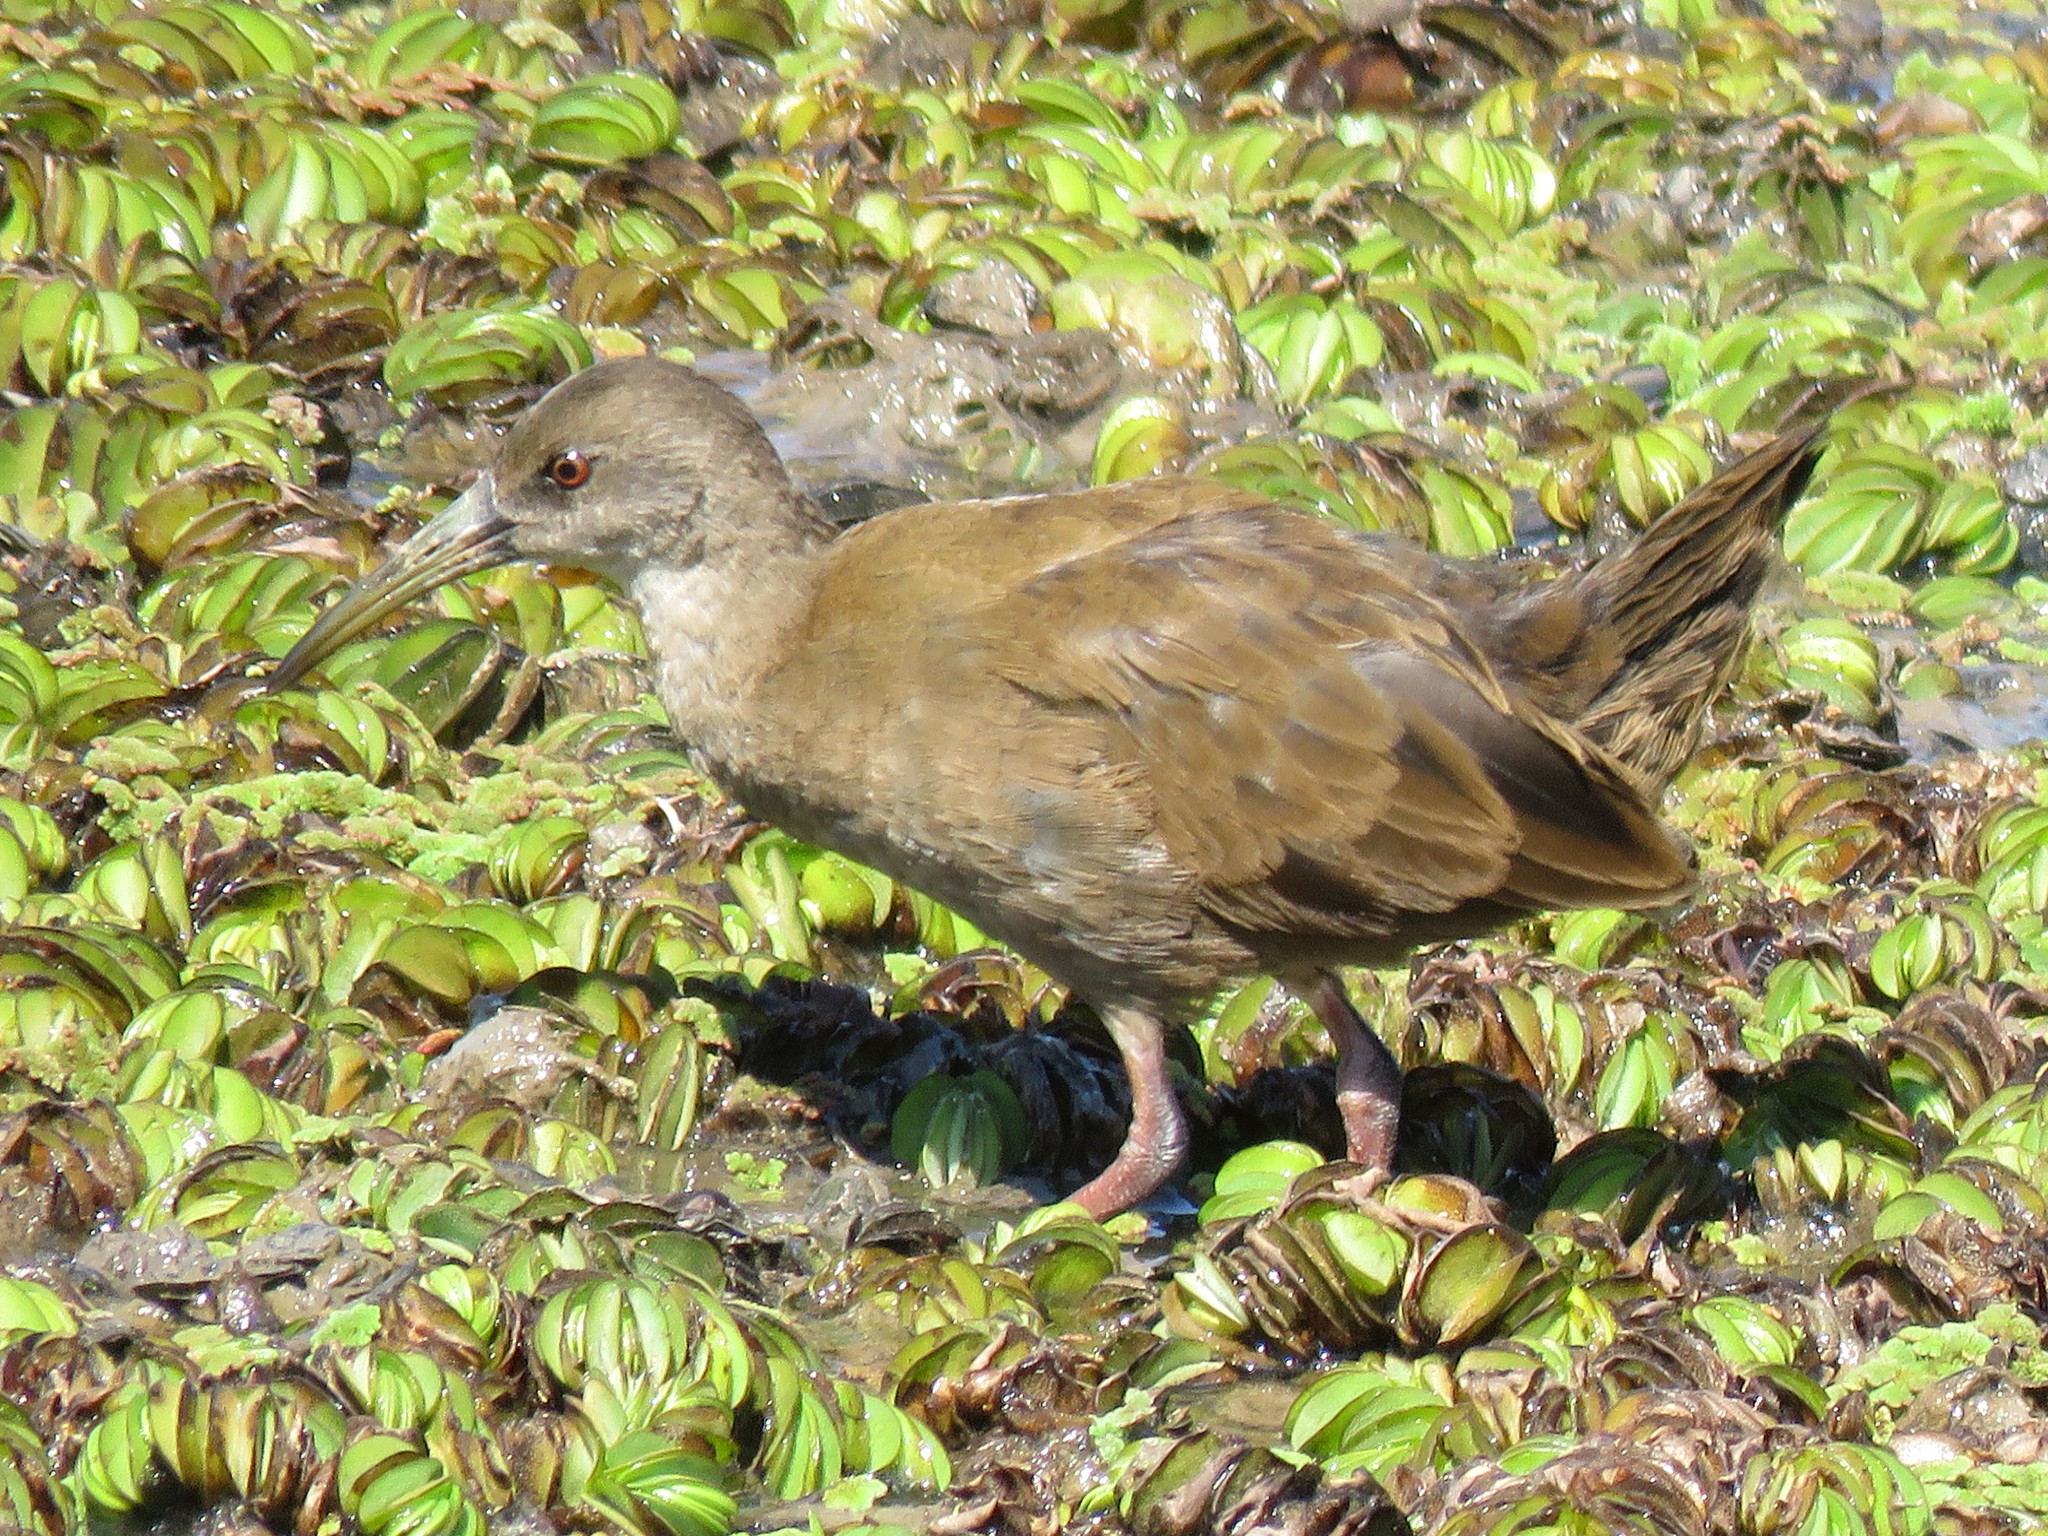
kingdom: Animalia
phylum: Chordata
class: Aves
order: Gruiformes
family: Rallidae
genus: Pardirallus
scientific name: Pardirallus sanguinolentus
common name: Plumbeous rail
